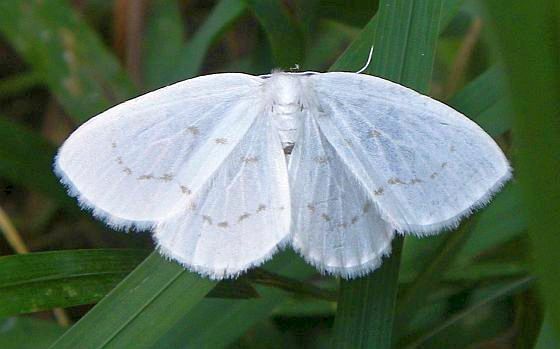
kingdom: Animalia
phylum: Arthropoda
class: Insecta
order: Lepidoptera
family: Drepanidae
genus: Eudeilinia
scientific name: Eudeilinia herminiata
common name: Northern eudeilinea moth
